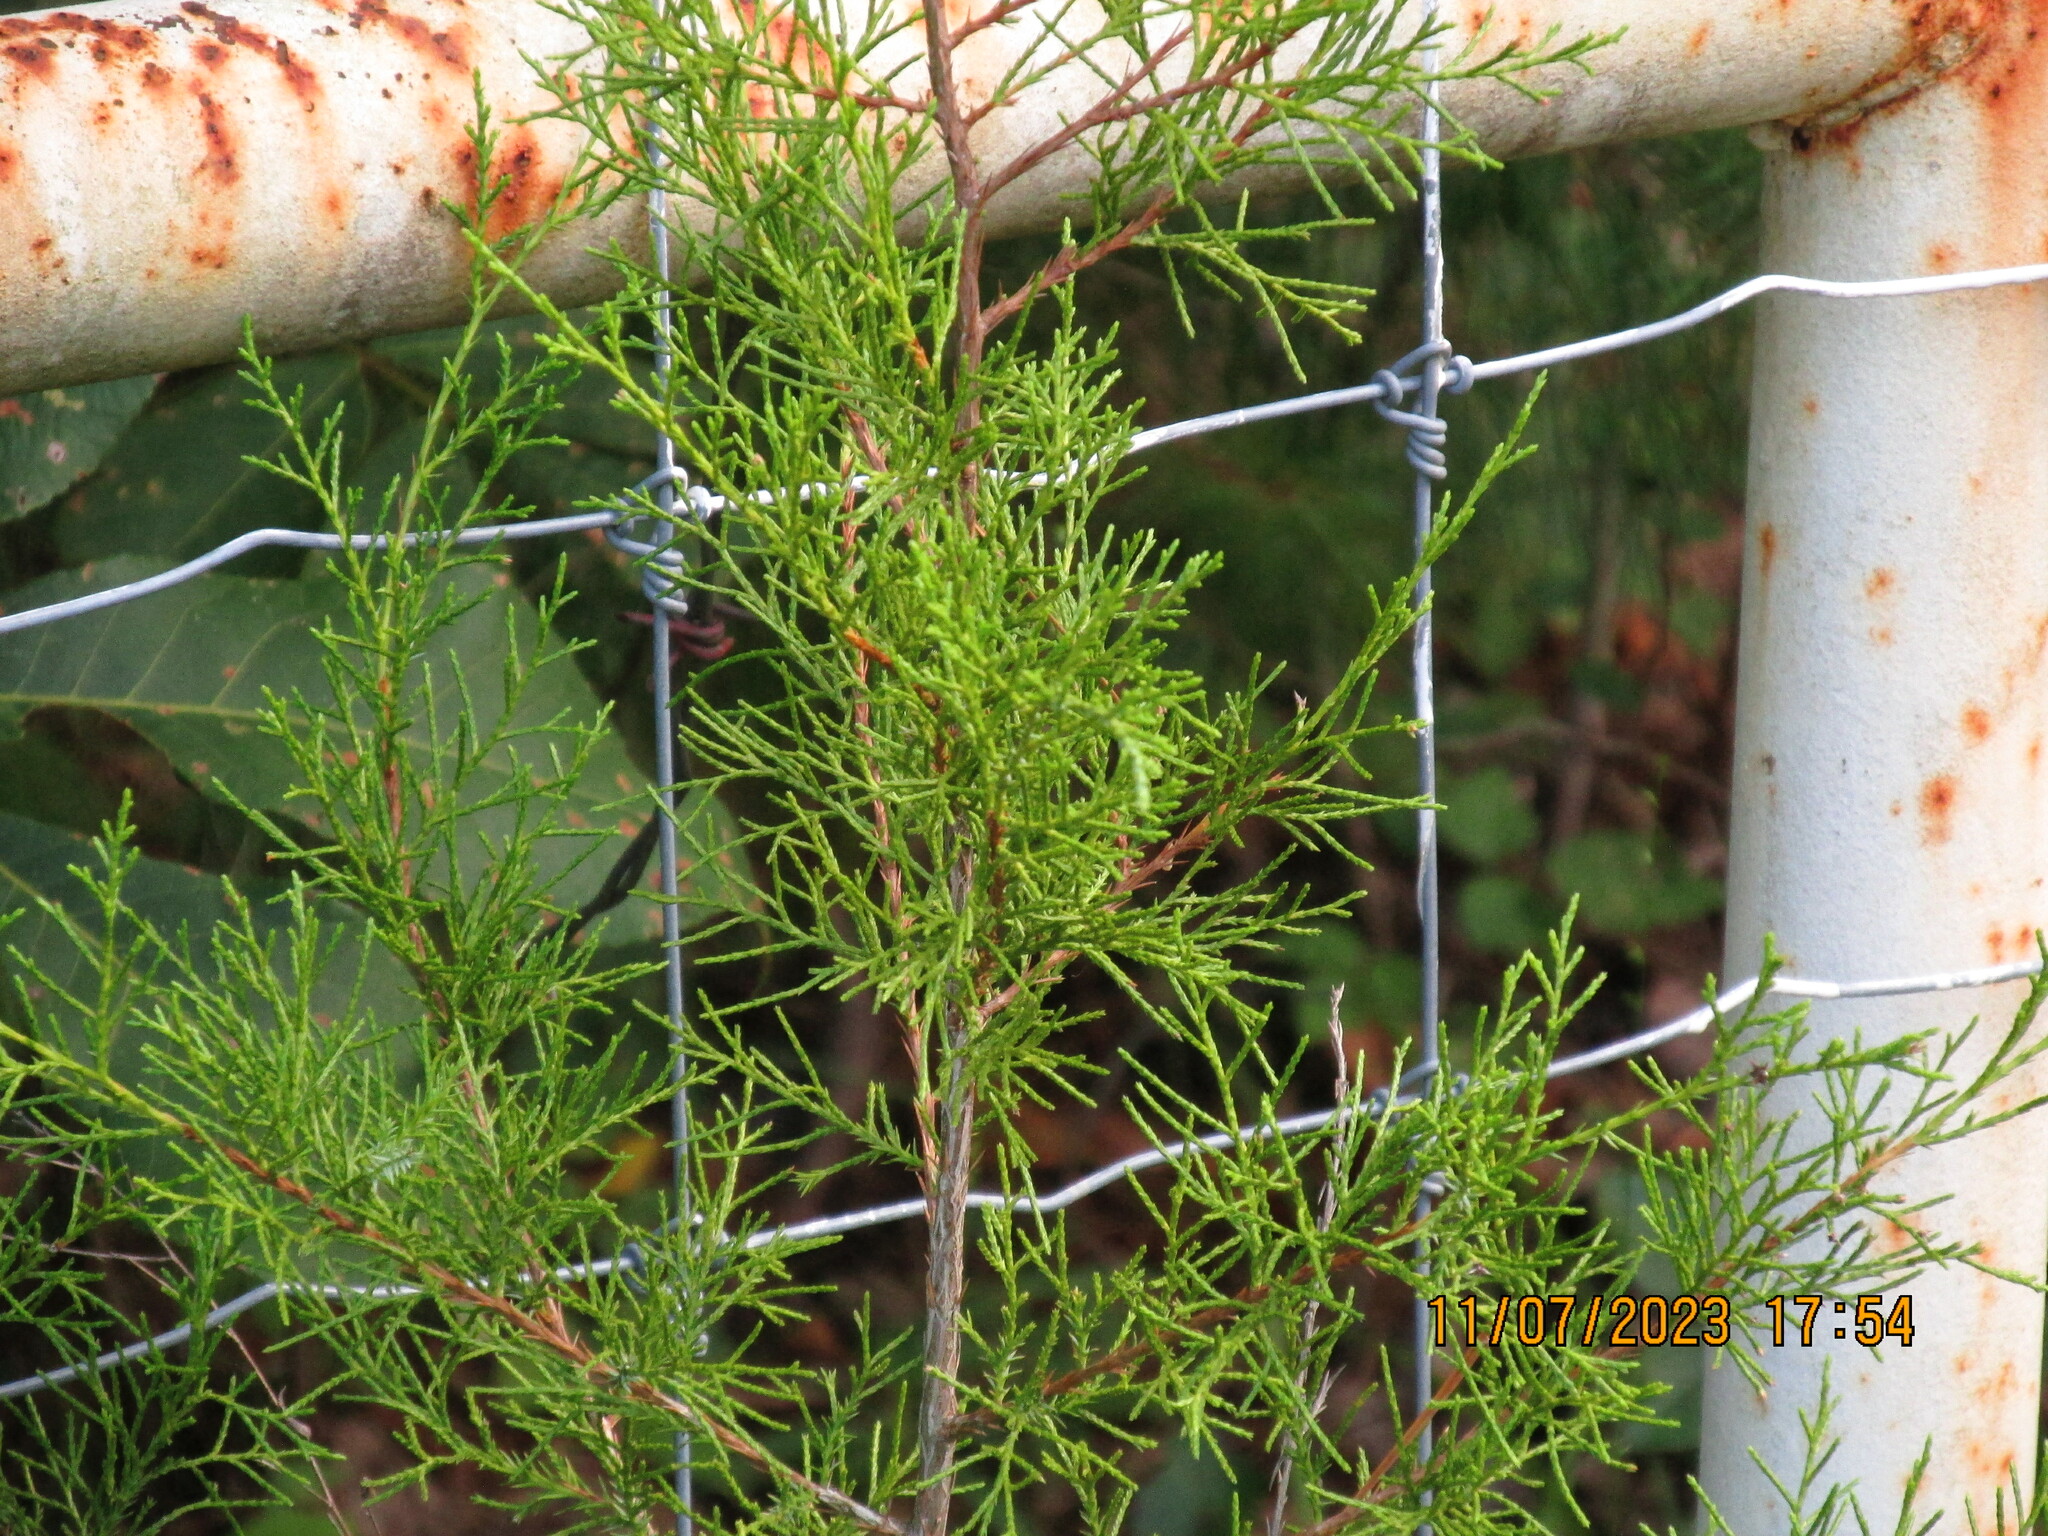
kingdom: Plantae
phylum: Tracheophyta
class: Pinopsida
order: Pinales
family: Cupressaceae
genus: Juniperus
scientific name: Juniperus virginiana
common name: Red juniper
